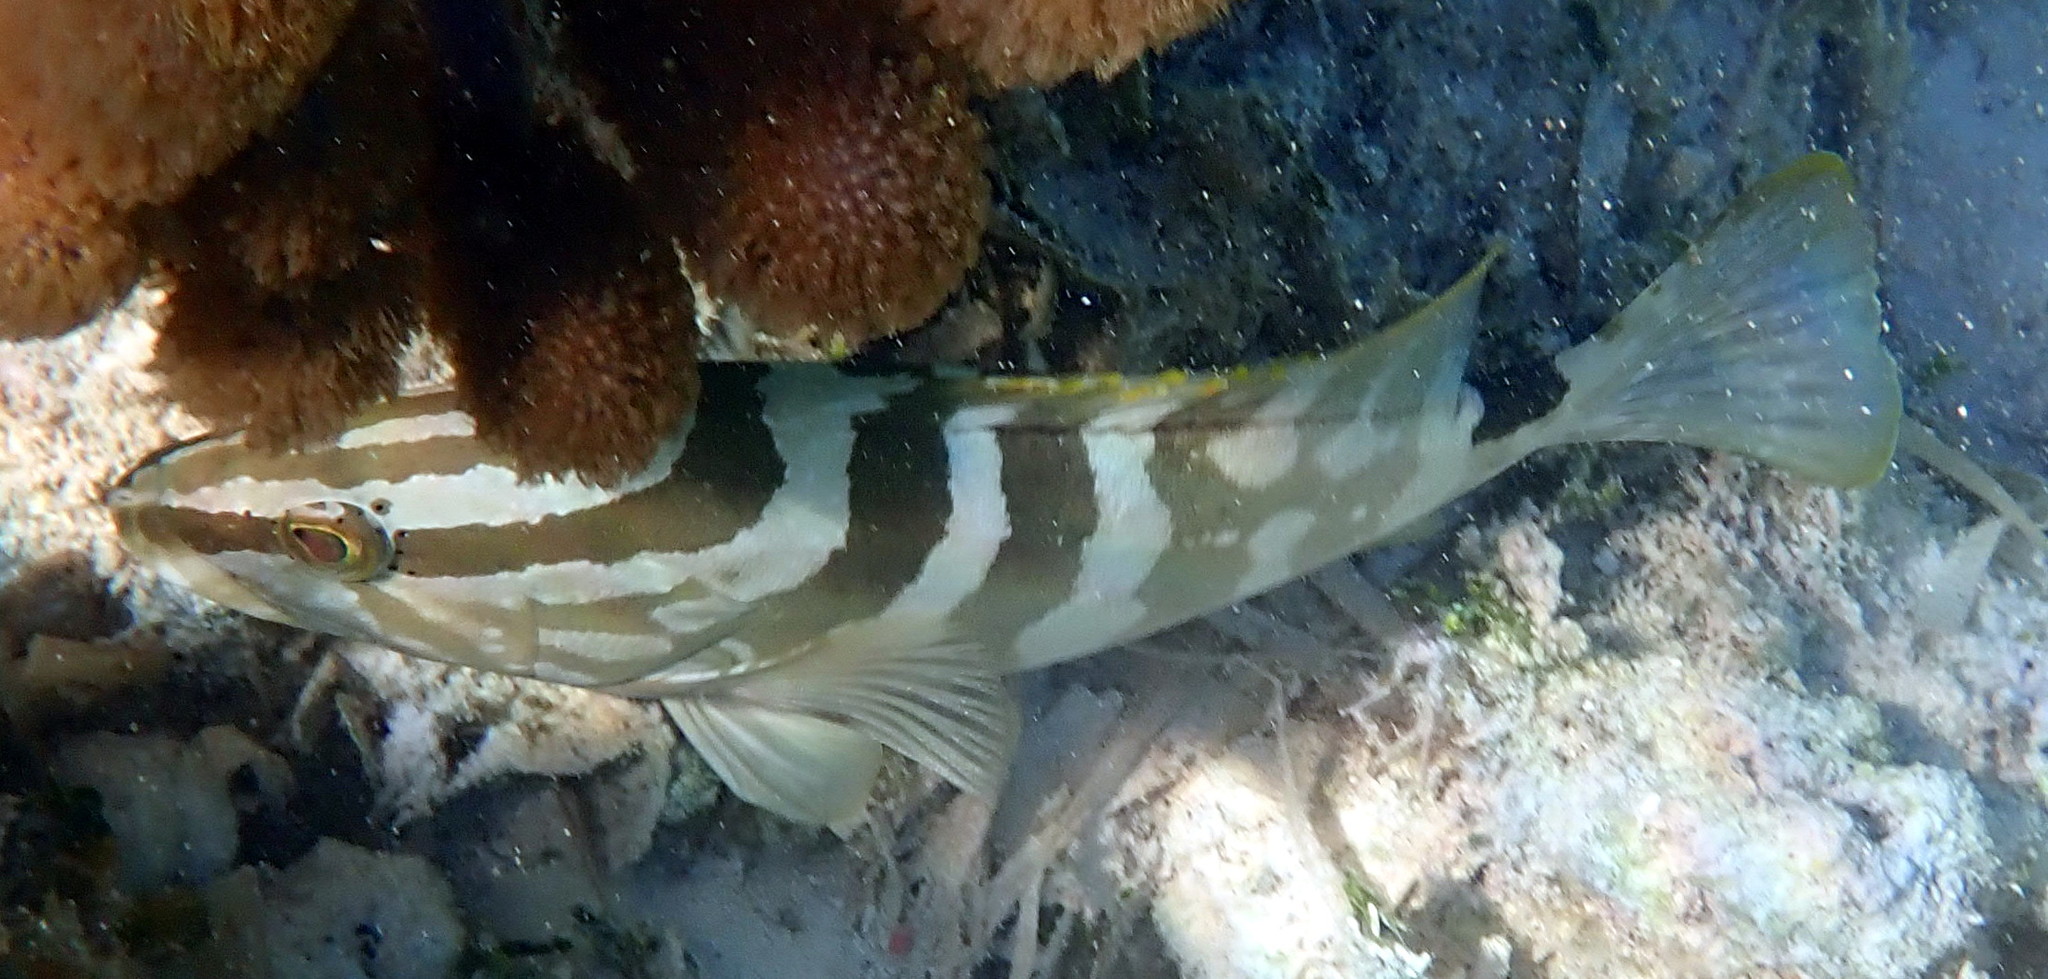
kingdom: Animalia
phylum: Chordata
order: Perciformes
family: Serranidae
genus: Epinephelus
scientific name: Epinephelus striatus
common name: Nassau grouper
